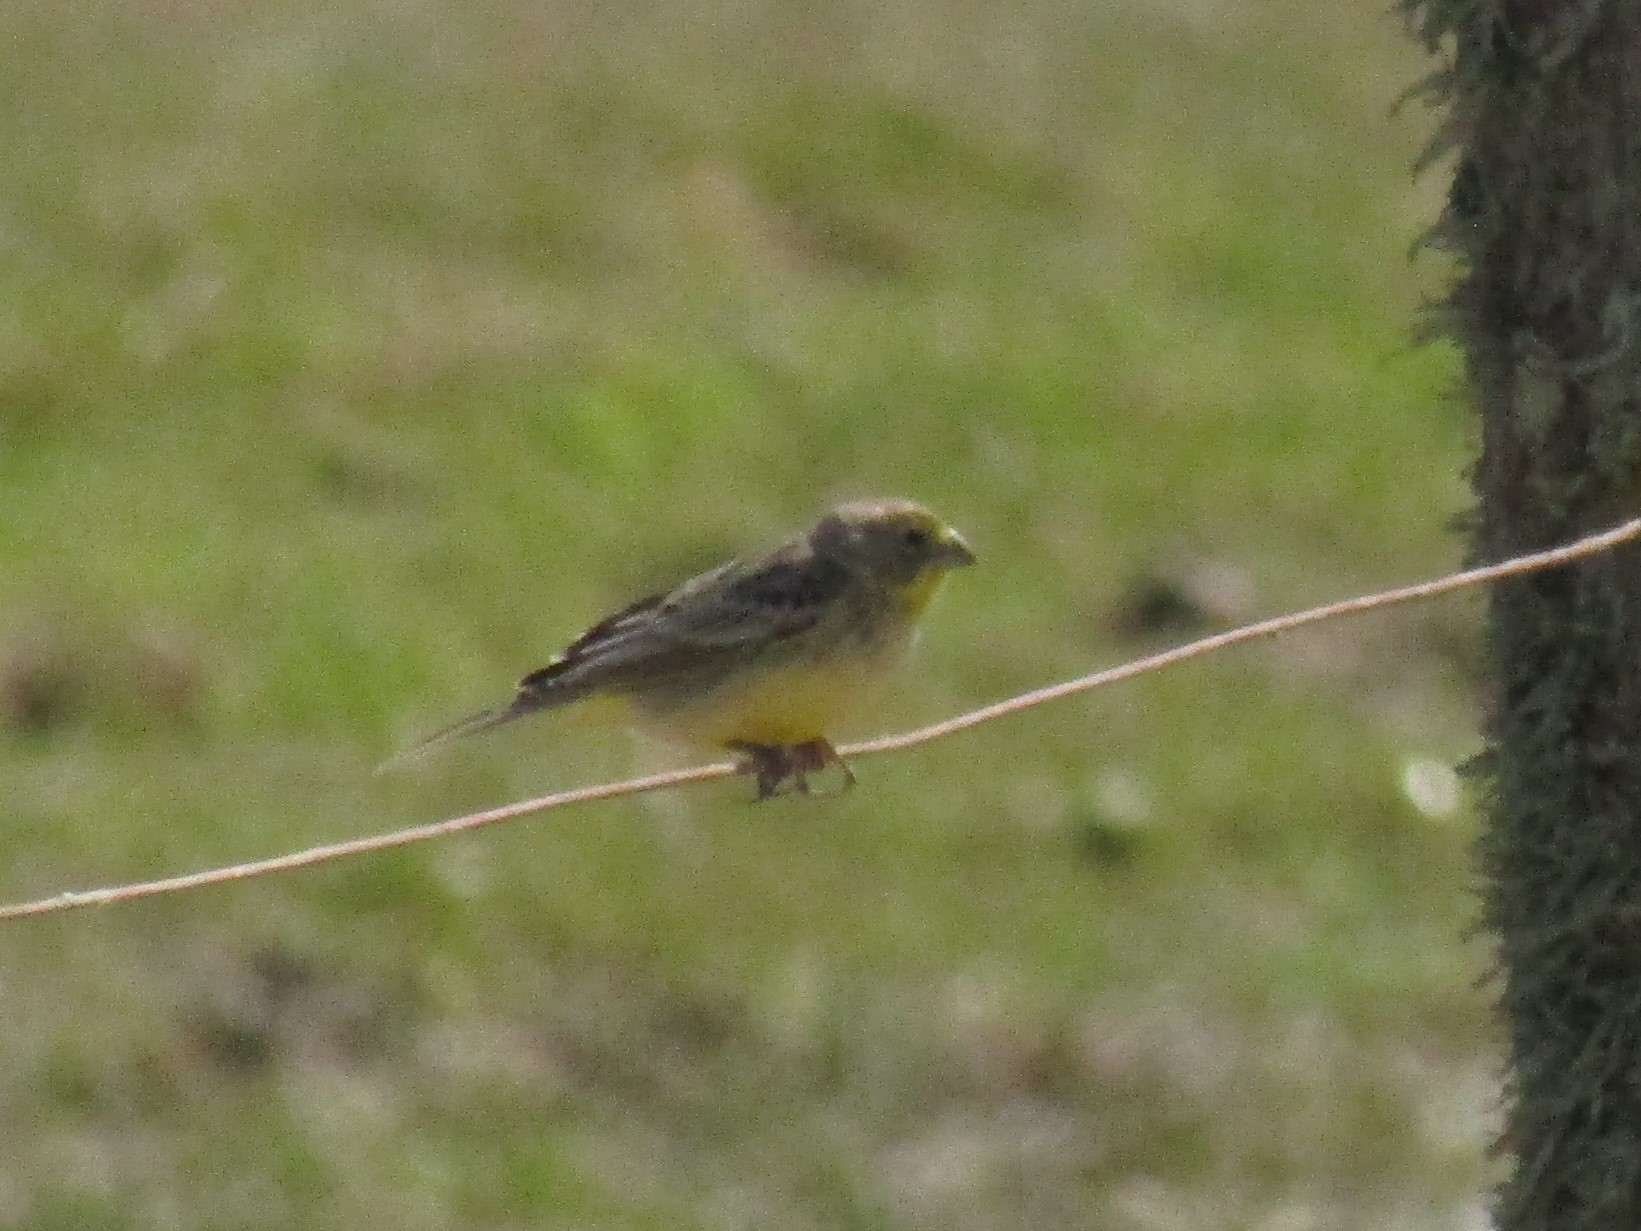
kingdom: Animalia
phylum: Chordata
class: Aves
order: Passeriformes
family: Thraupidae
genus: Sicalis
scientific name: Sicalis luteola
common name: Grassland yellow-finch
